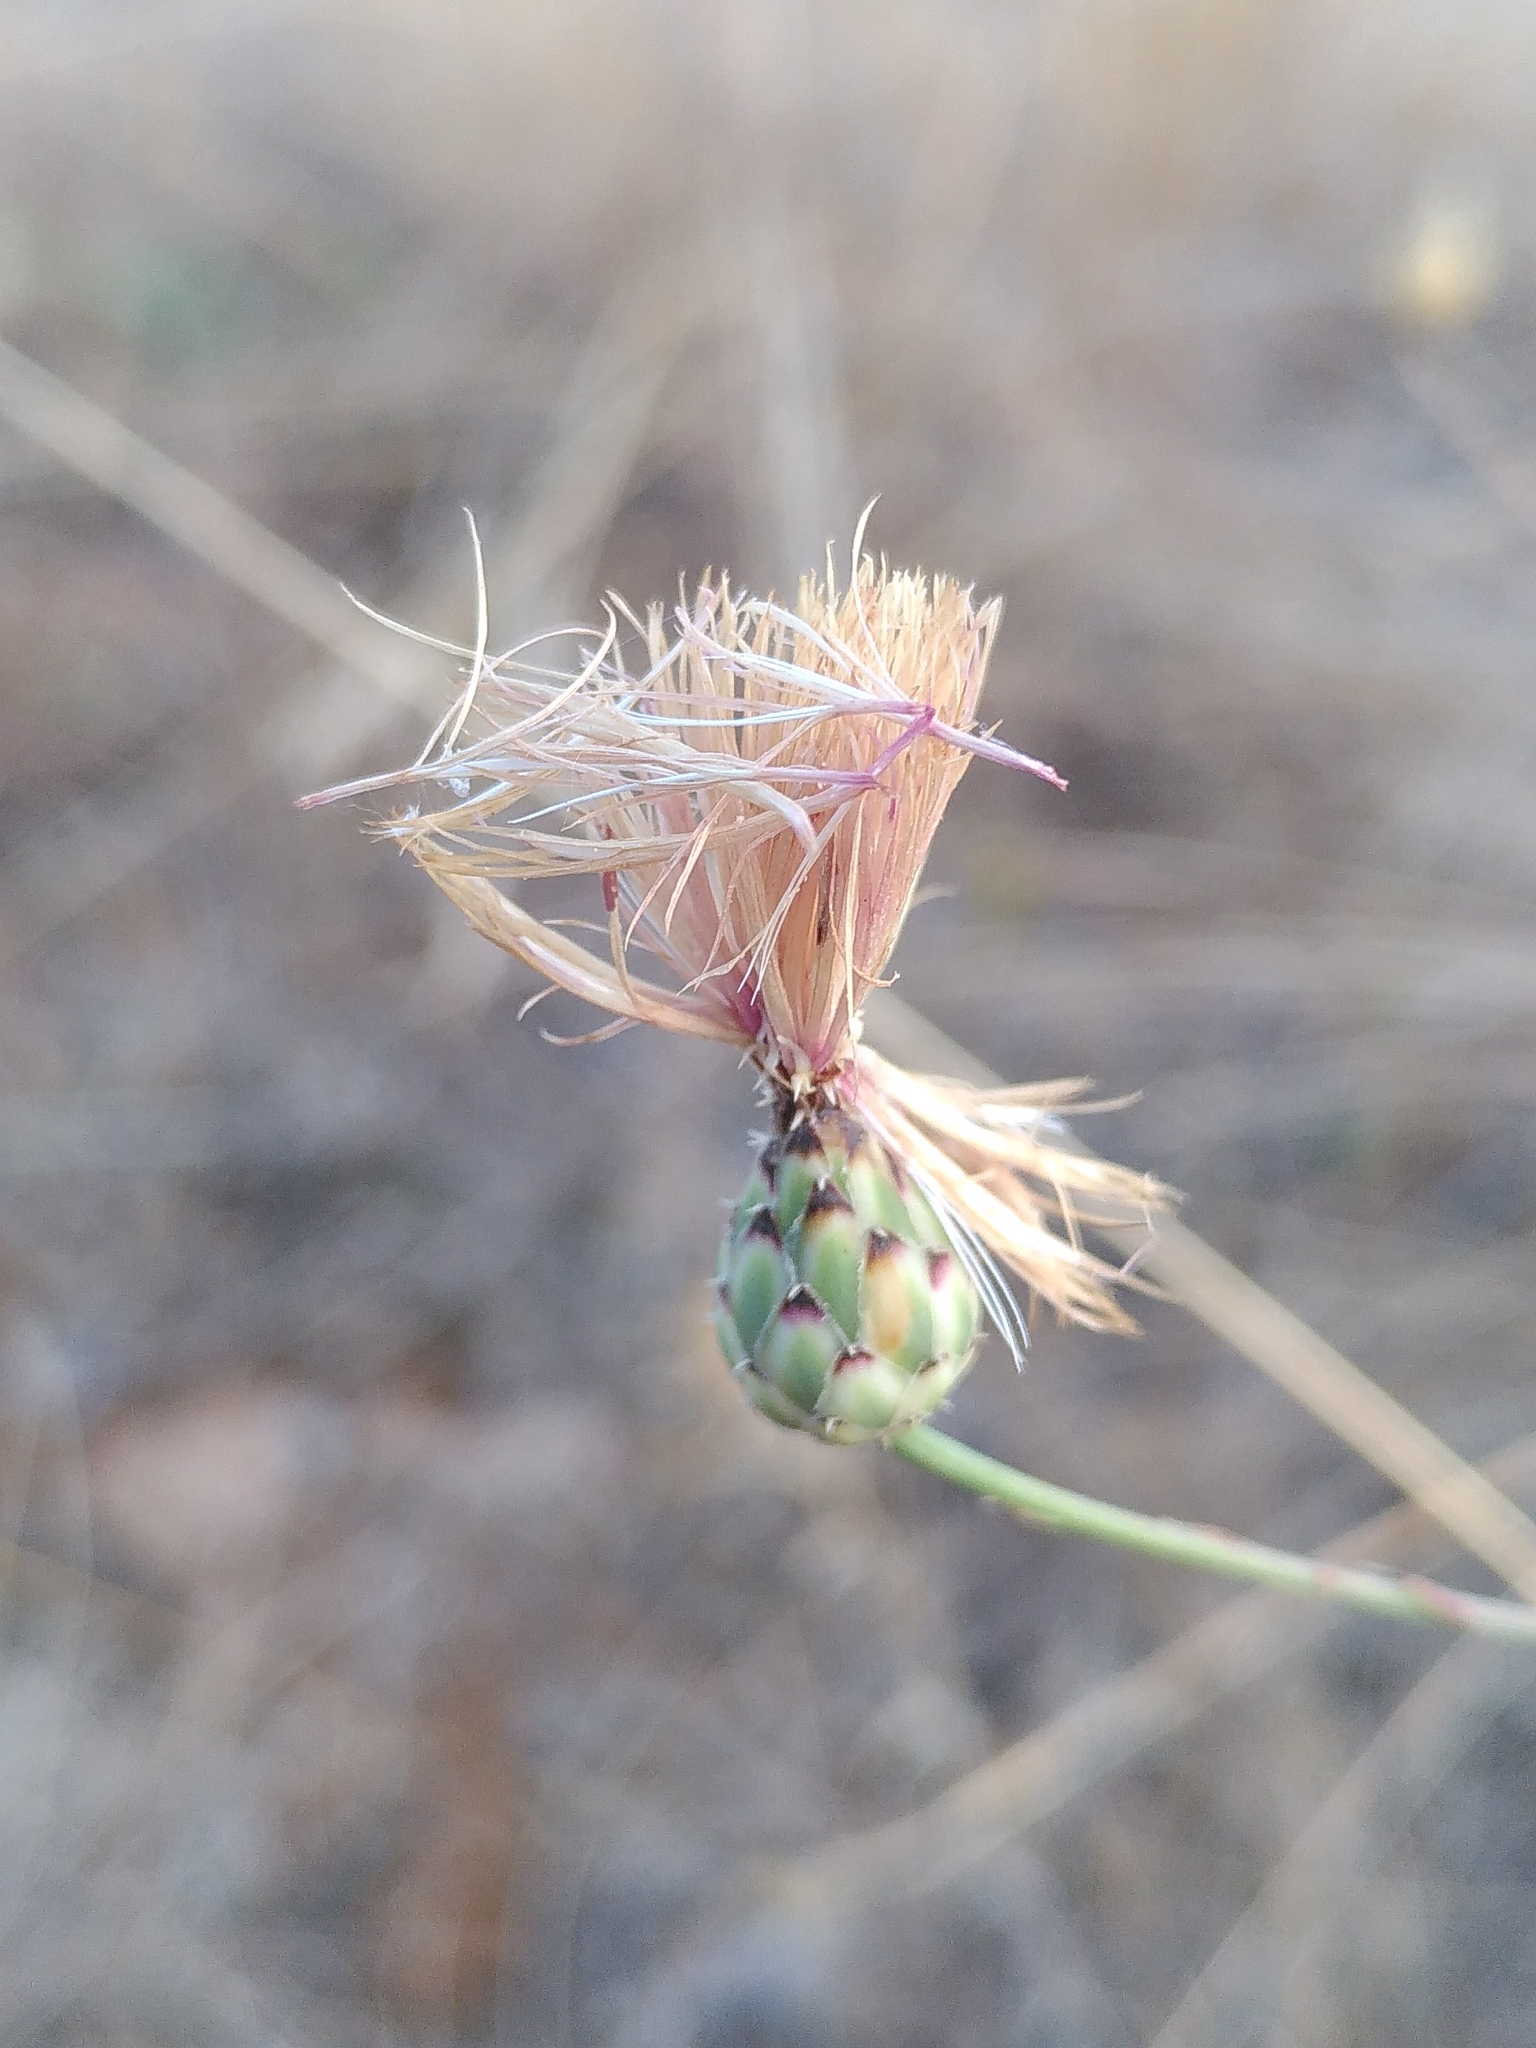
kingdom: Plantae
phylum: Tracheophyta
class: Magnoliopsida
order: Asterales
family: Asteraceae
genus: Mantisalca
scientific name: Mantisalca salmantica
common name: Dagger flower
